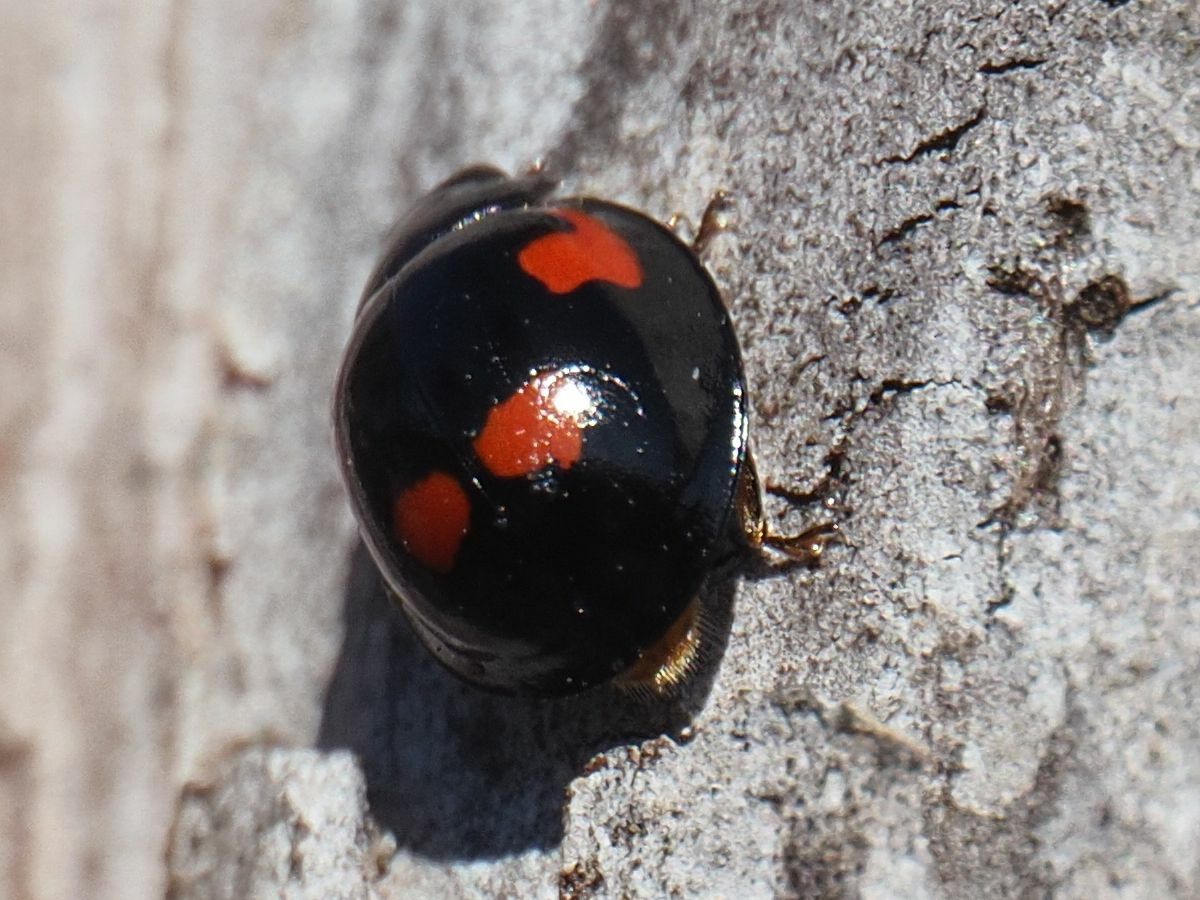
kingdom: Animalia
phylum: Arthropoda
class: Insecta
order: Coleoptera
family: Coccinellidae
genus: Brumus
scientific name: Brumus quadripustulatus
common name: Ladybird beetle
